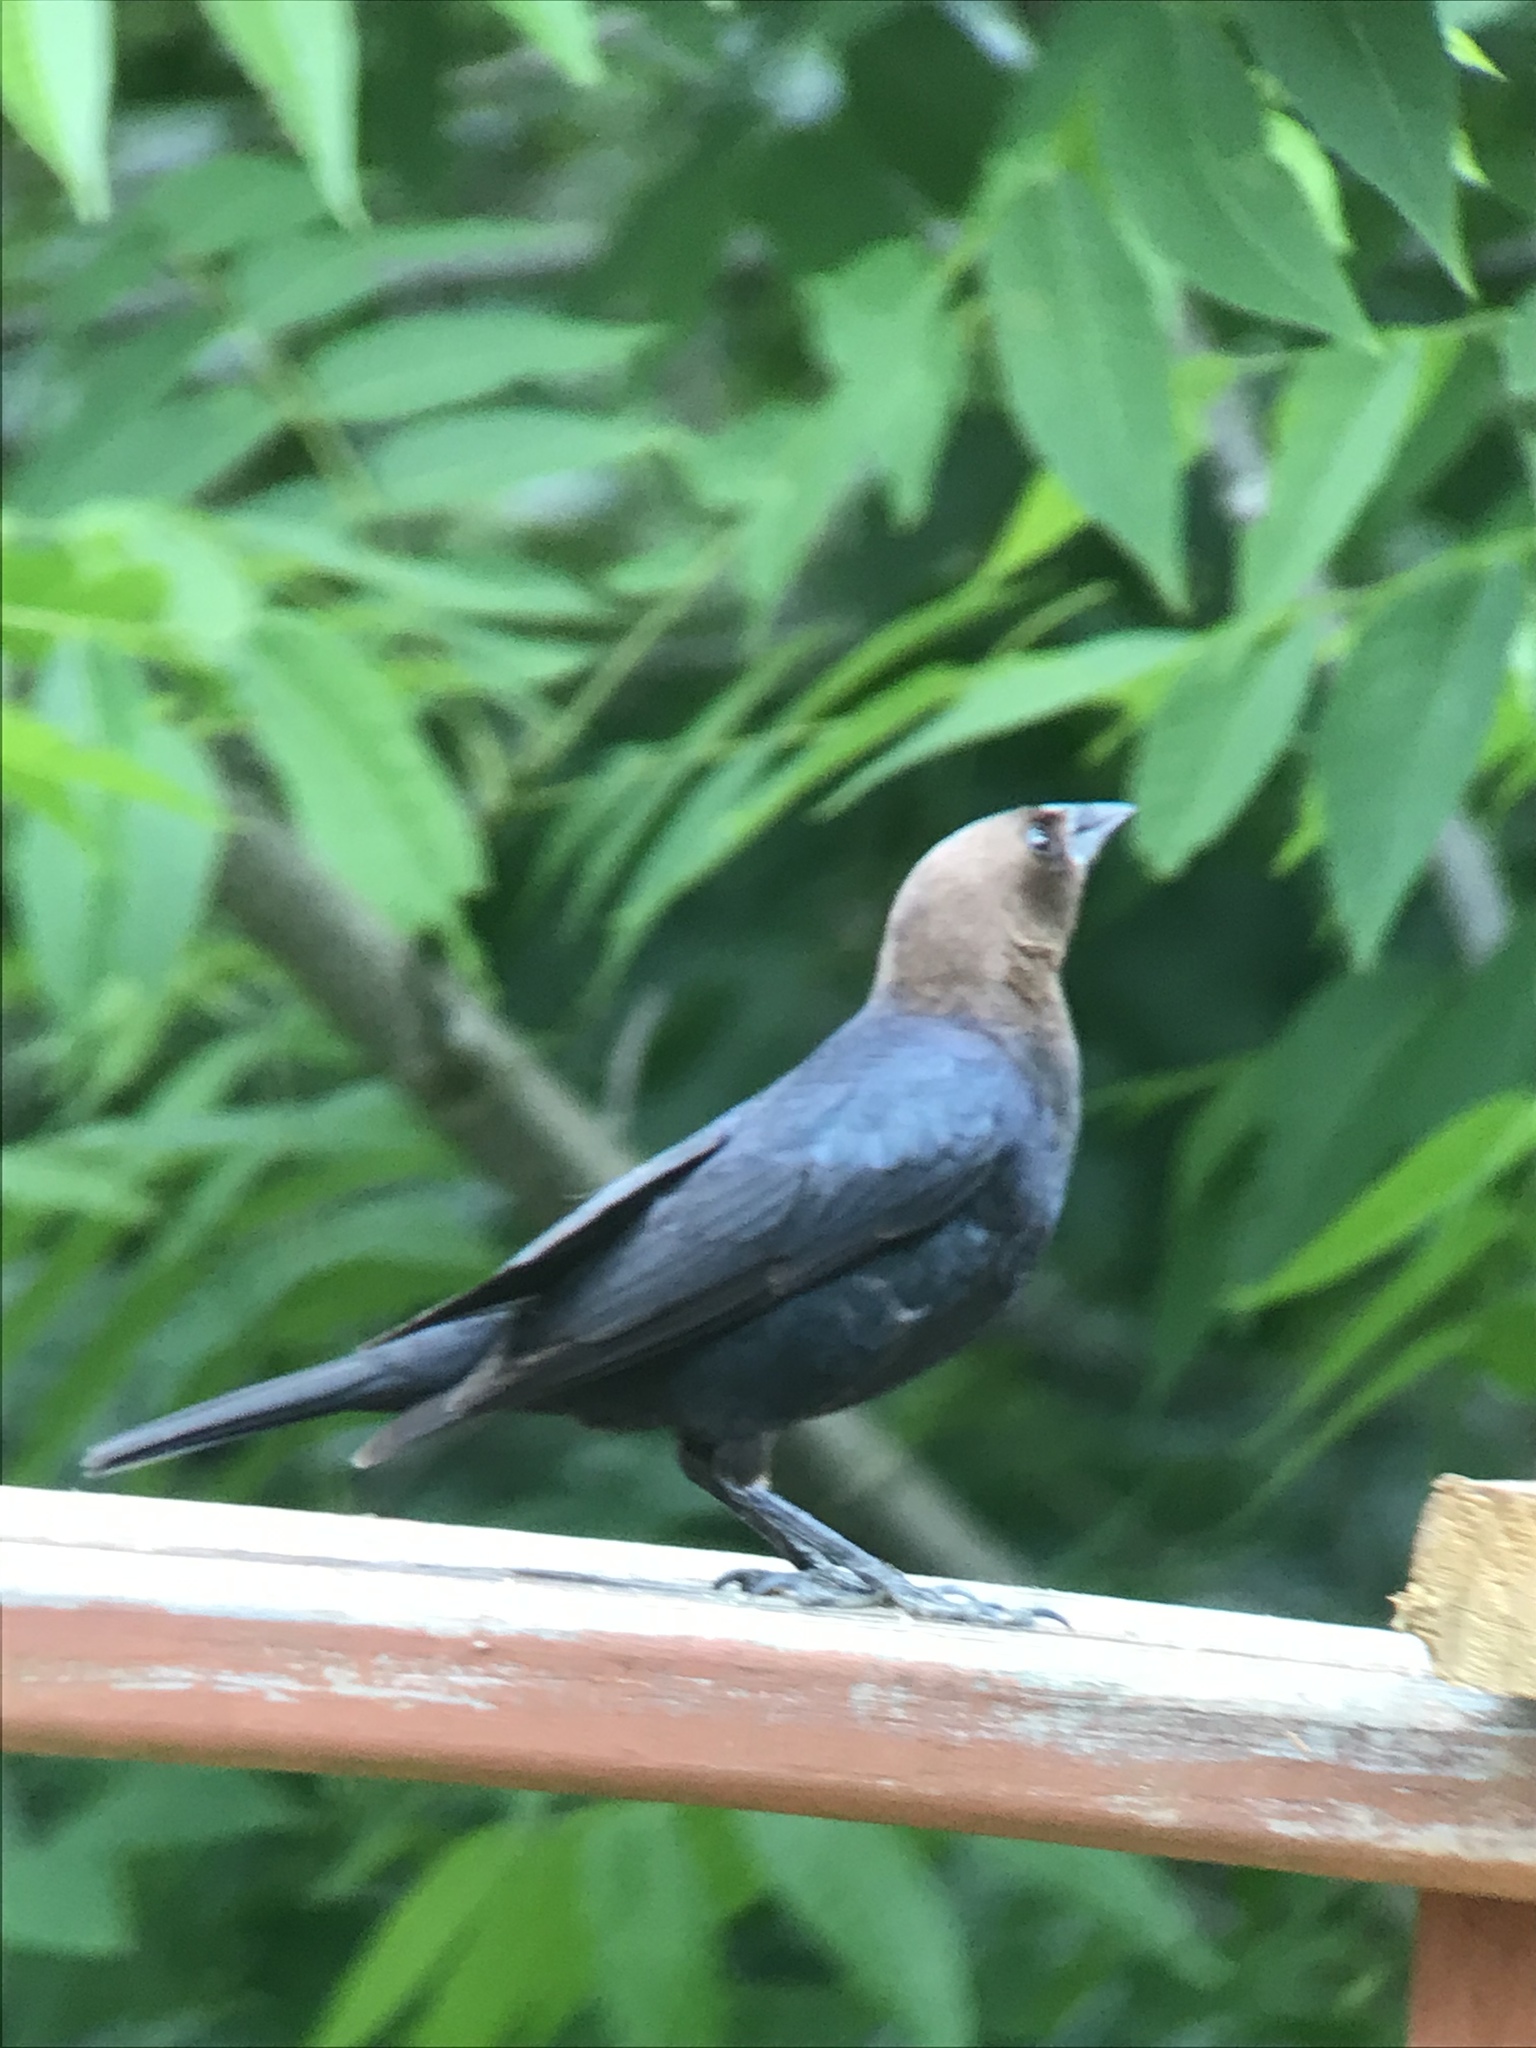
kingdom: Animalia
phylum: Chordata
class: Aves
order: Passeriformes
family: Icteridae
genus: Molothrus
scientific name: Molothrus ater
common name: Brown-headed cowbird
